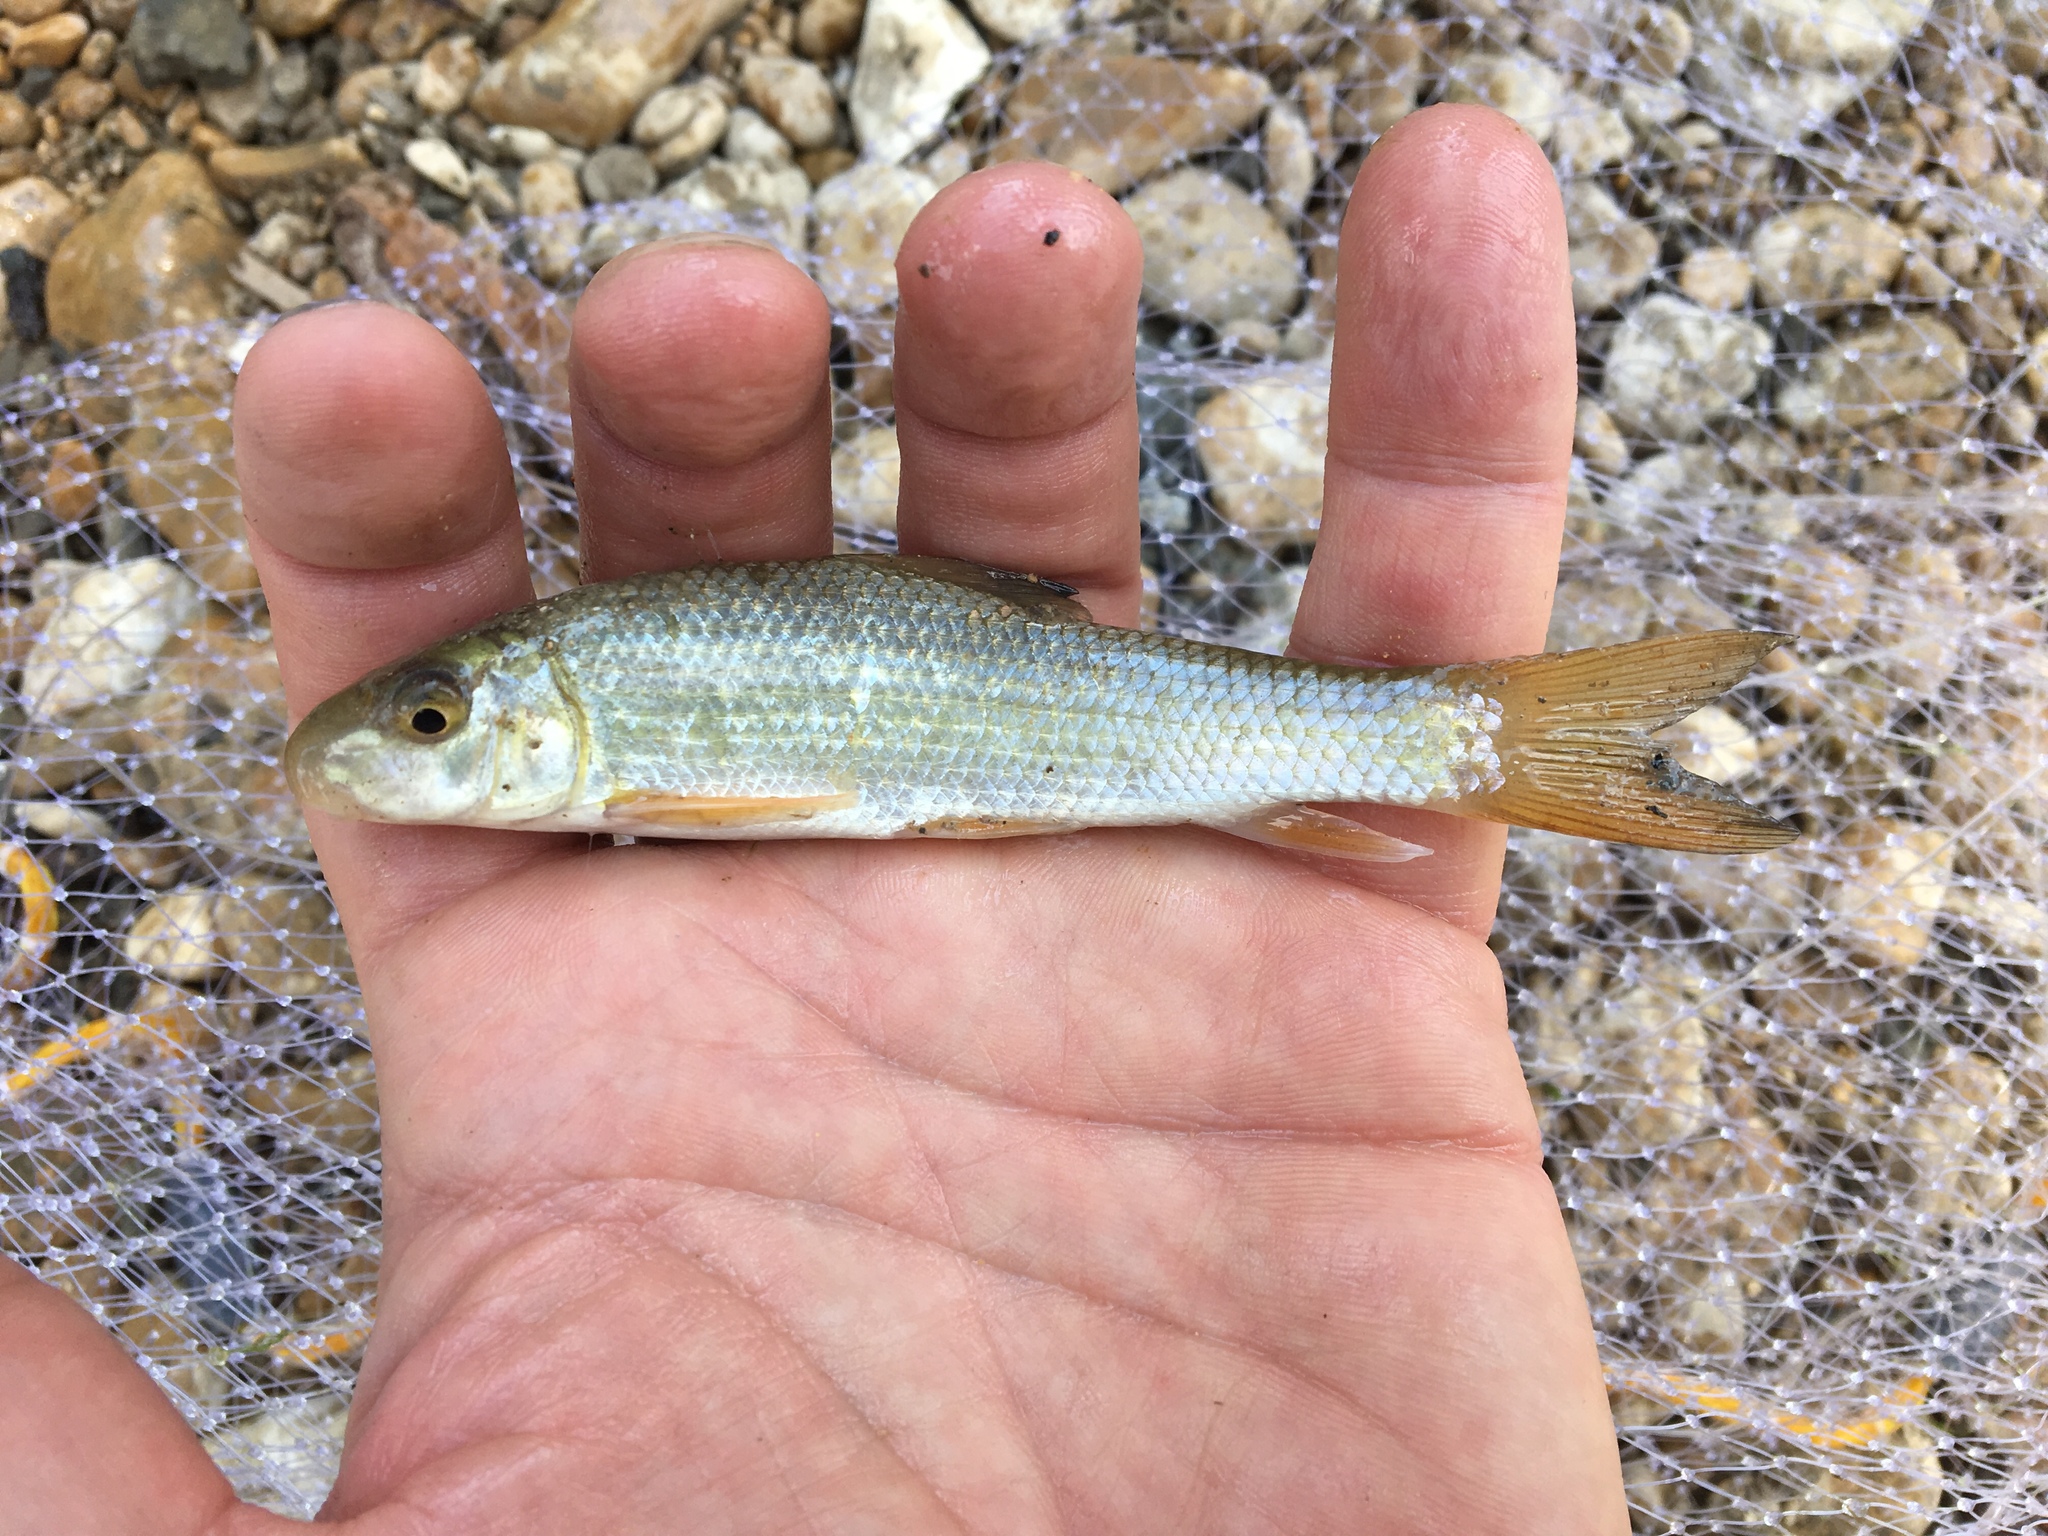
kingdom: Animalia
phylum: Chordata
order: Cypriniformes
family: Catostomidae
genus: Moxostoma
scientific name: Moxostoma congestum
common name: Gray redhorse
